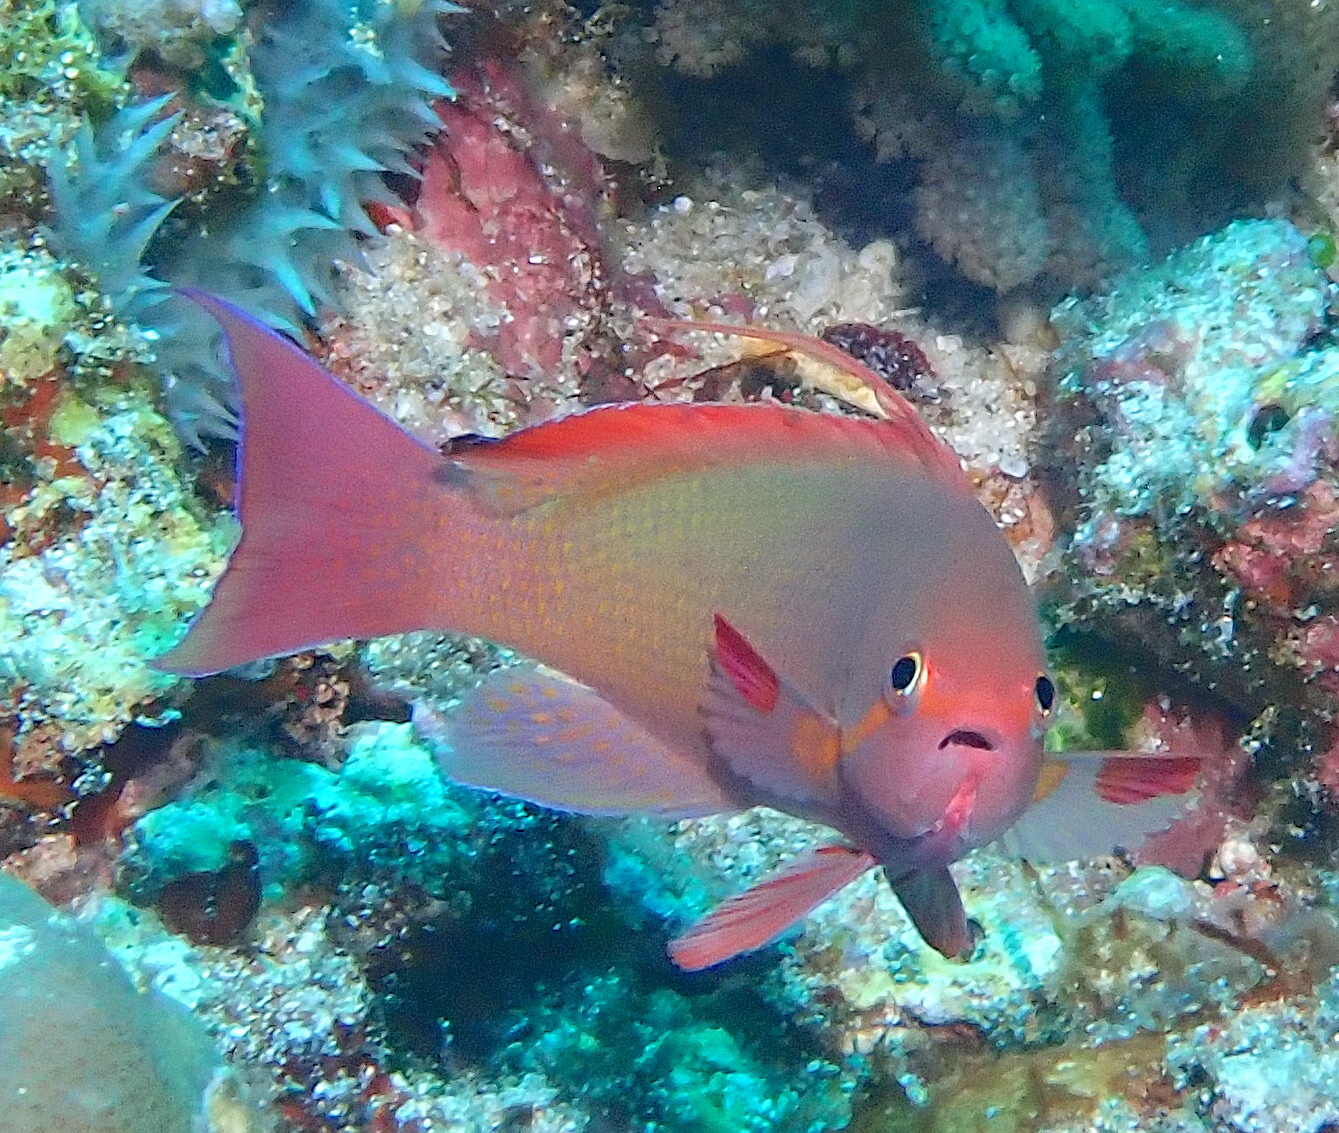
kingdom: Animalia
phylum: Chordata
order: Perciformes
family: Serranidae
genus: Pseudanthias
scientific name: Pseudanthias squamipinnis
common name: Scalefin anthias
